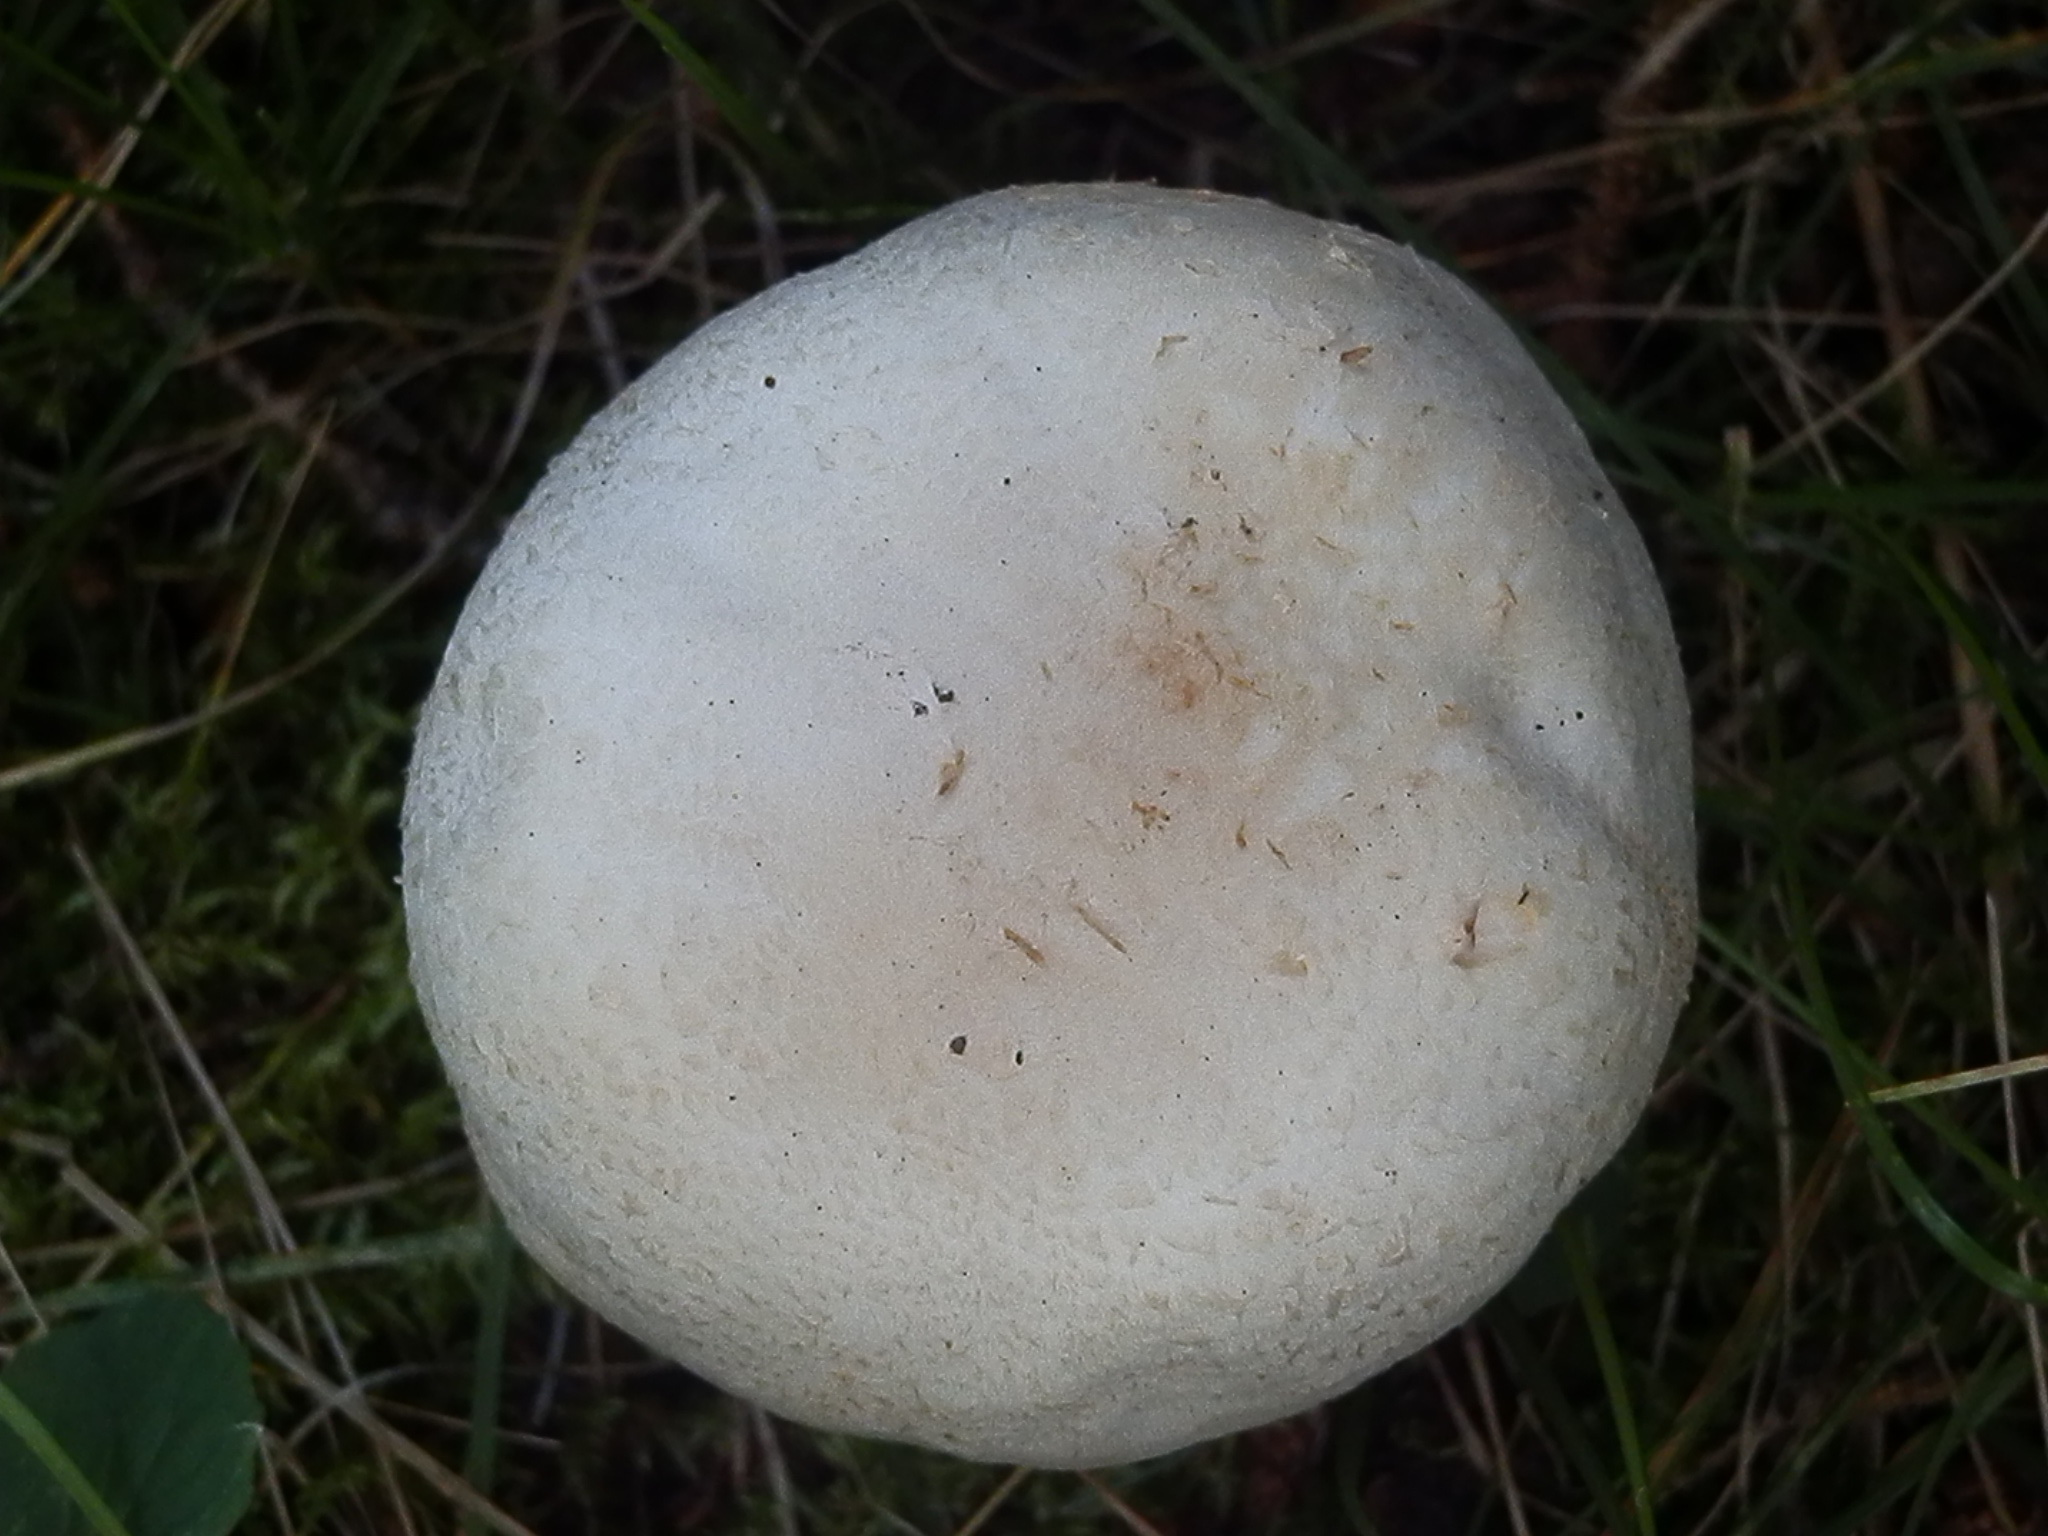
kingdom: Fungi
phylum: Basidiomycota
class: Agaricomycetes
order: Agaricales
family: Agaricaceae
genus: Agaricus
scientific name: Agaricus didymus
